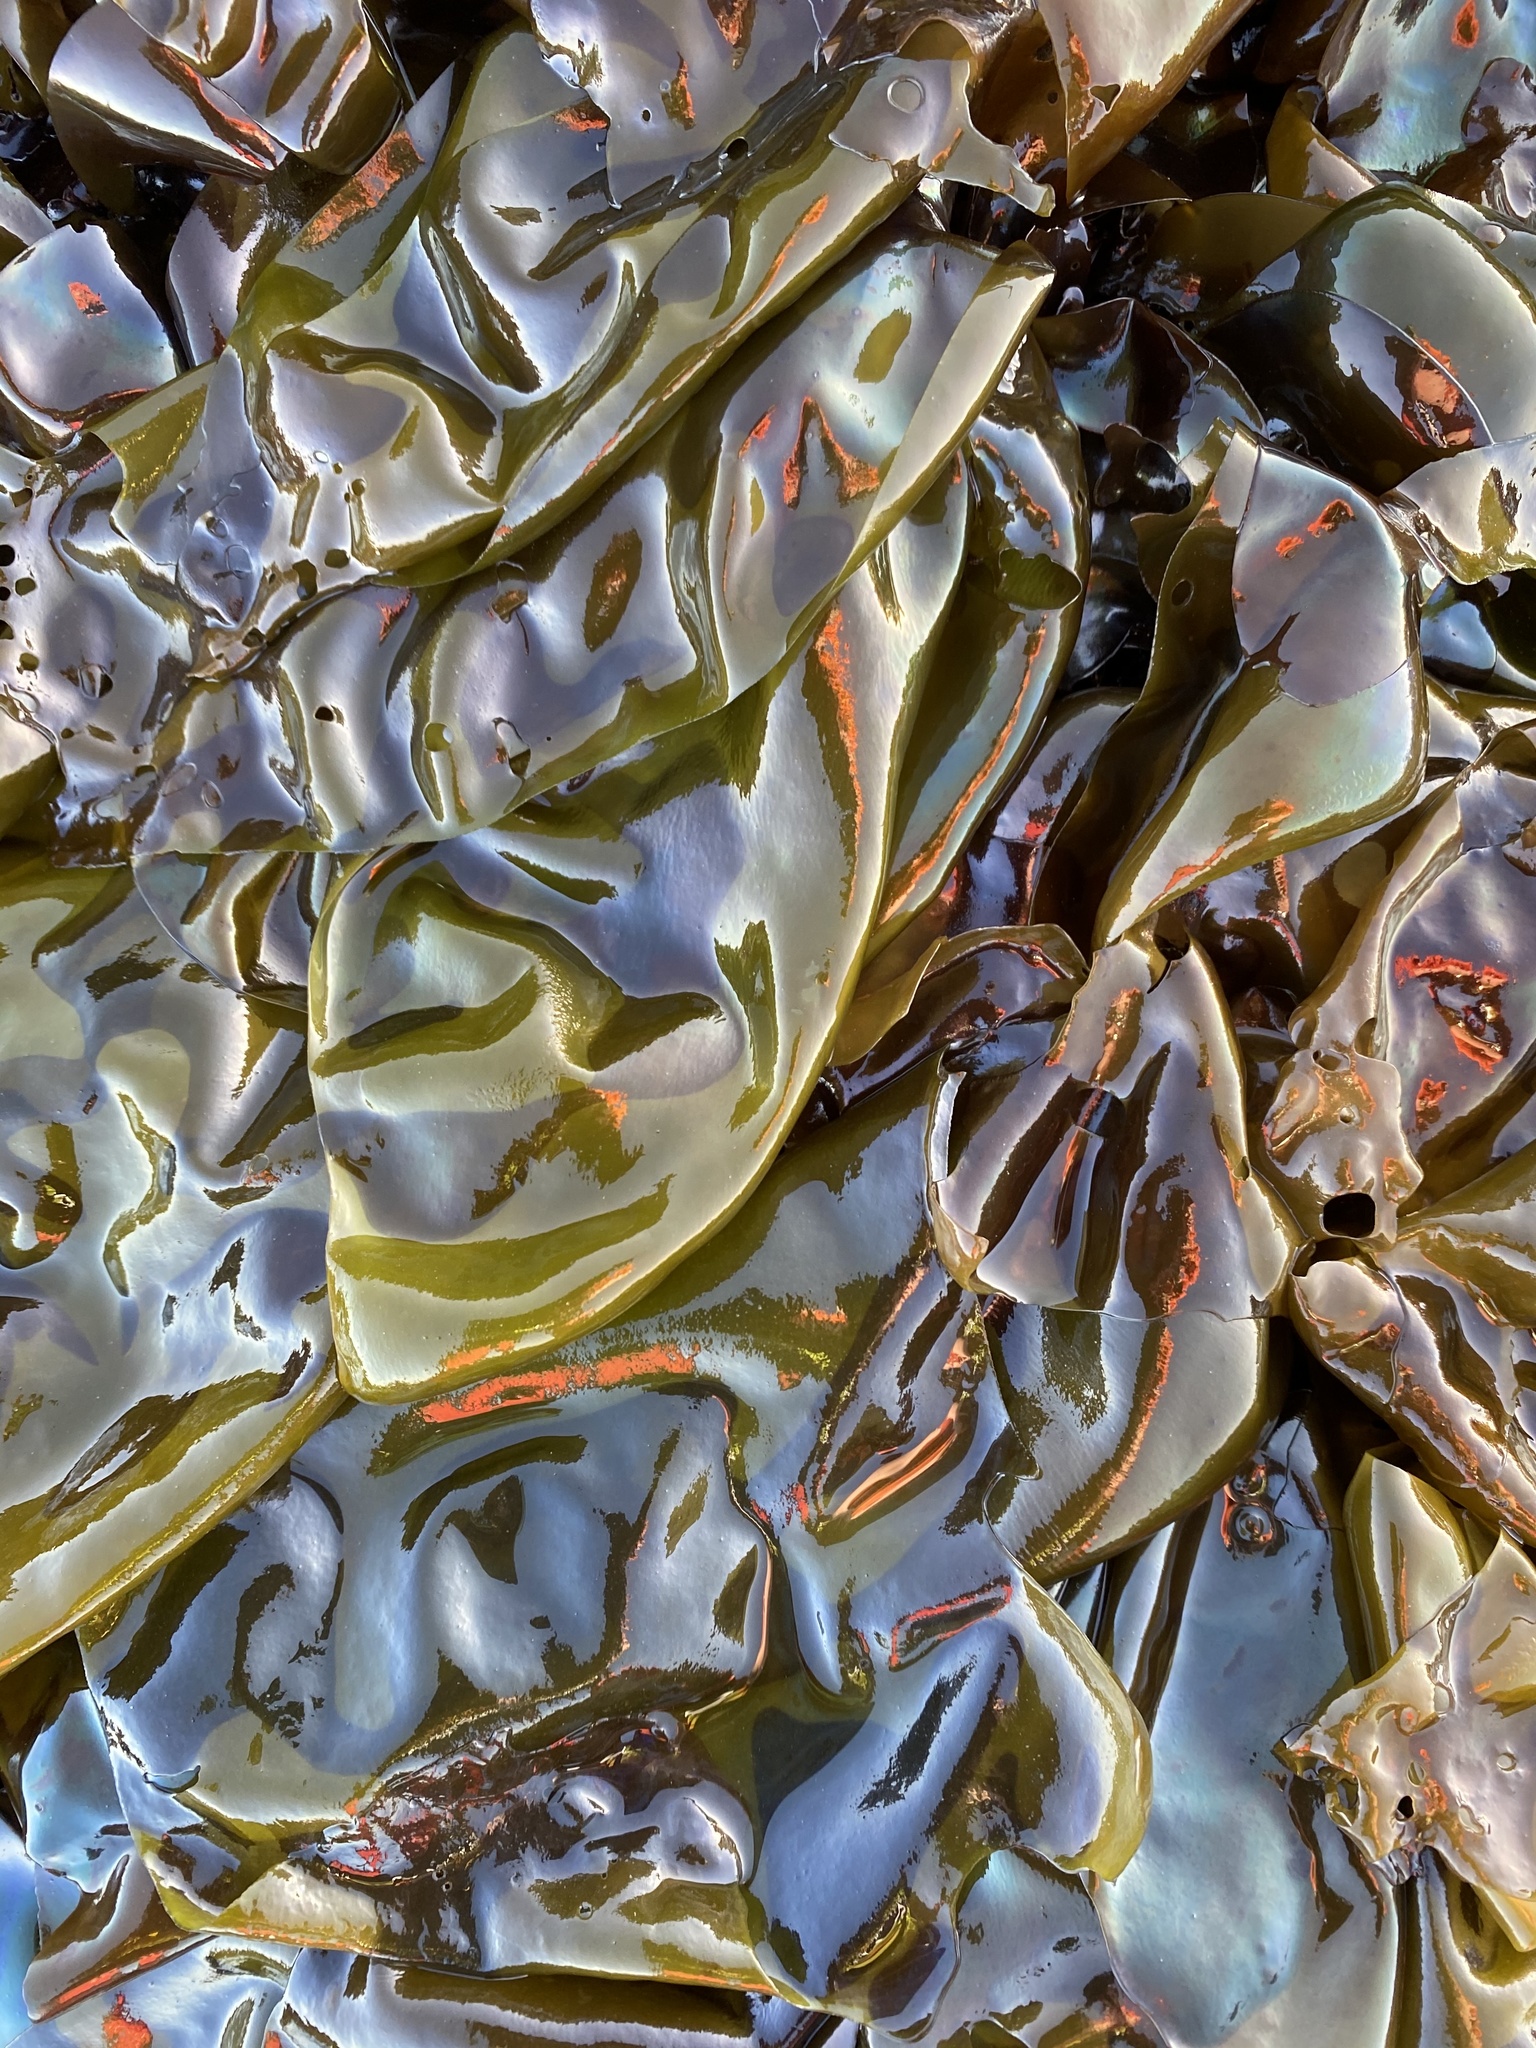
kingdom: Plantae
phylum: Rhodophyta
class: Florideophyceae
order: Gigartinales
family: Gigartinaceae
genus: Mazzaella
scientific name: Mazzaella flaccida
